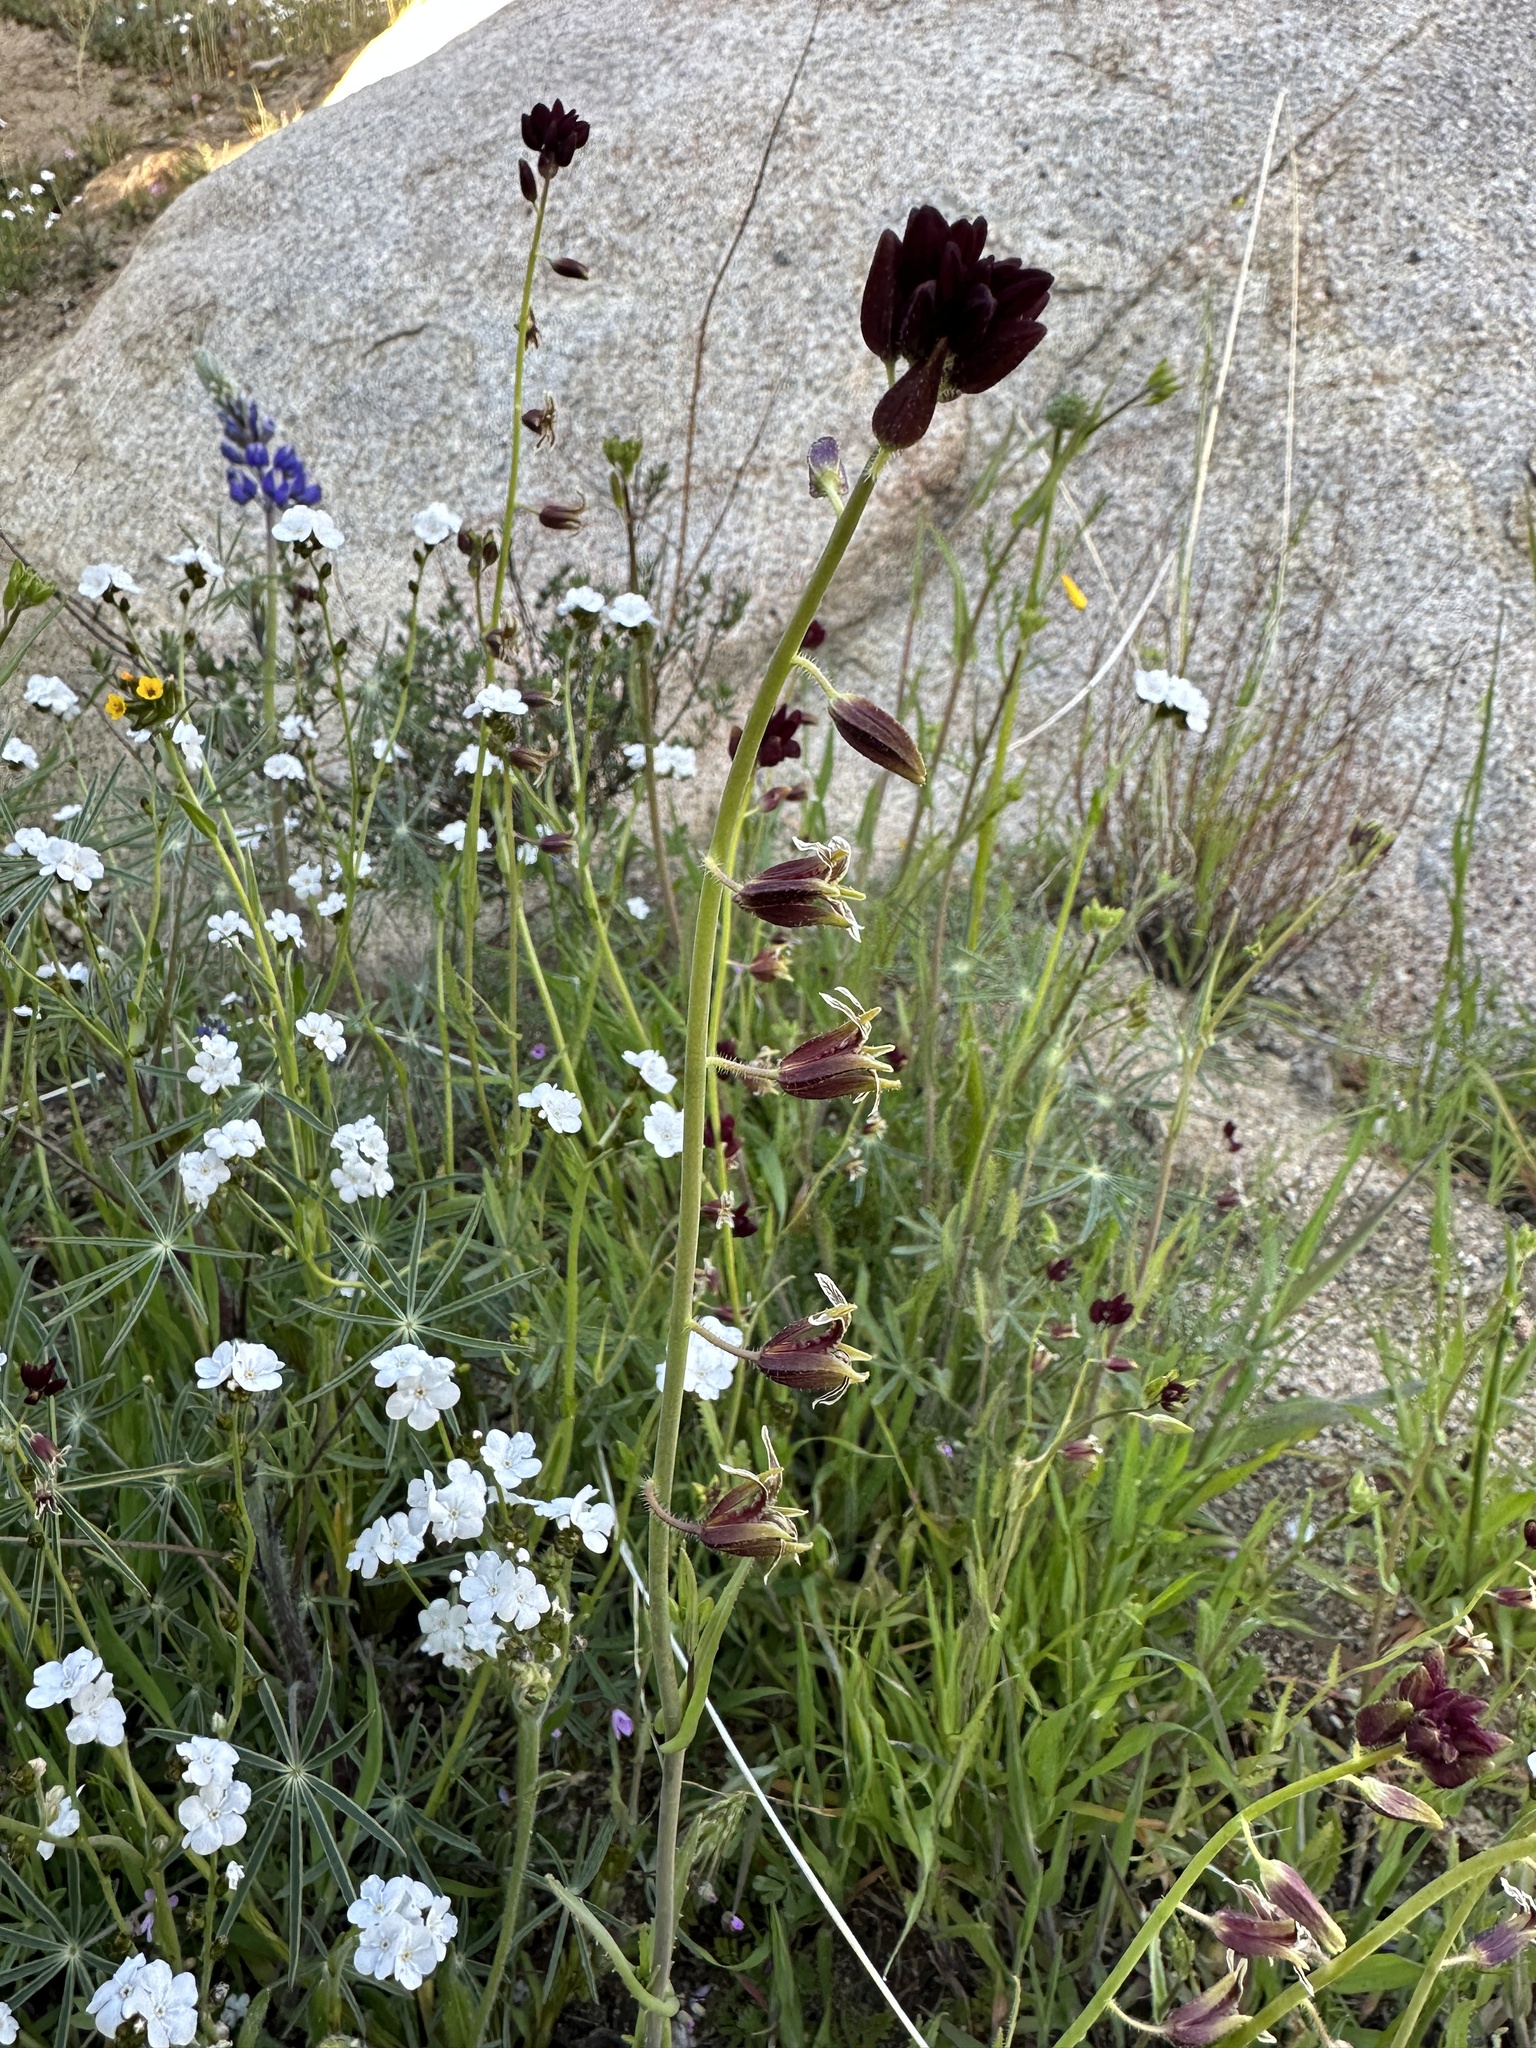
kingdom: Plantae
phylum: Tracheophyta
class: Magnoliopsida
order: Brassicales
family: Brassicaceae
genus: Streptanthus
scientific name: Streptanthus coulteri
